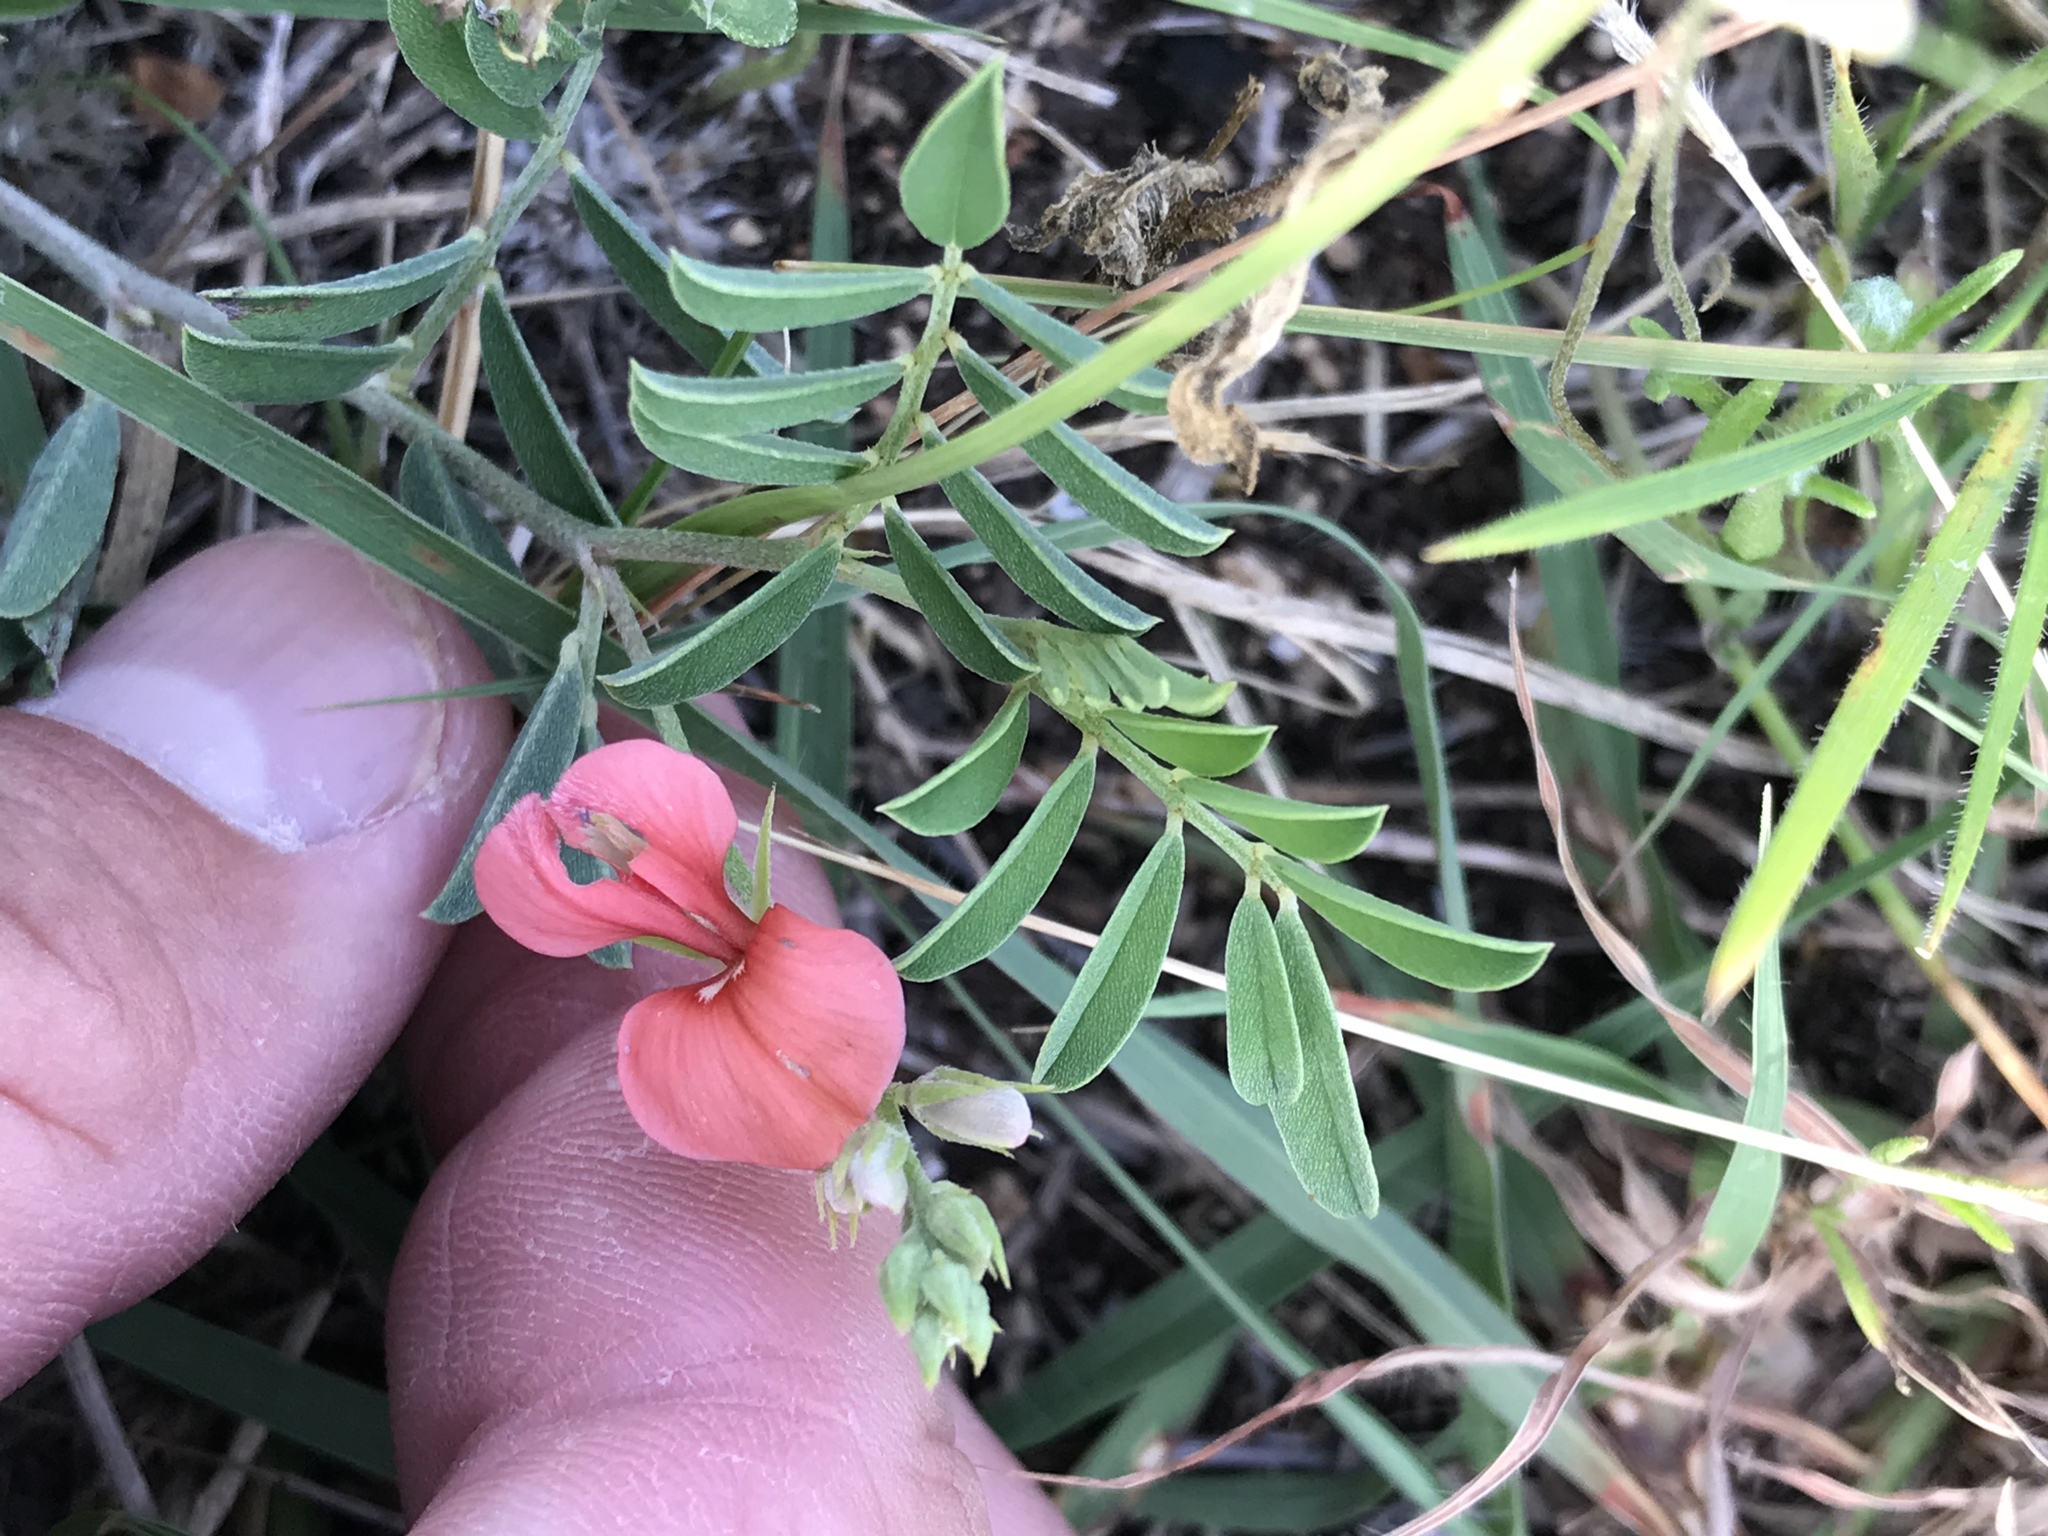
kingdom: Plantae
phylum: Tracheophyta
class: Magnoliopsida
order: Fabales
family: Fabaceae
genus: Indigofera
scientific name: Indigofera miniata
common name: Coast indigo
